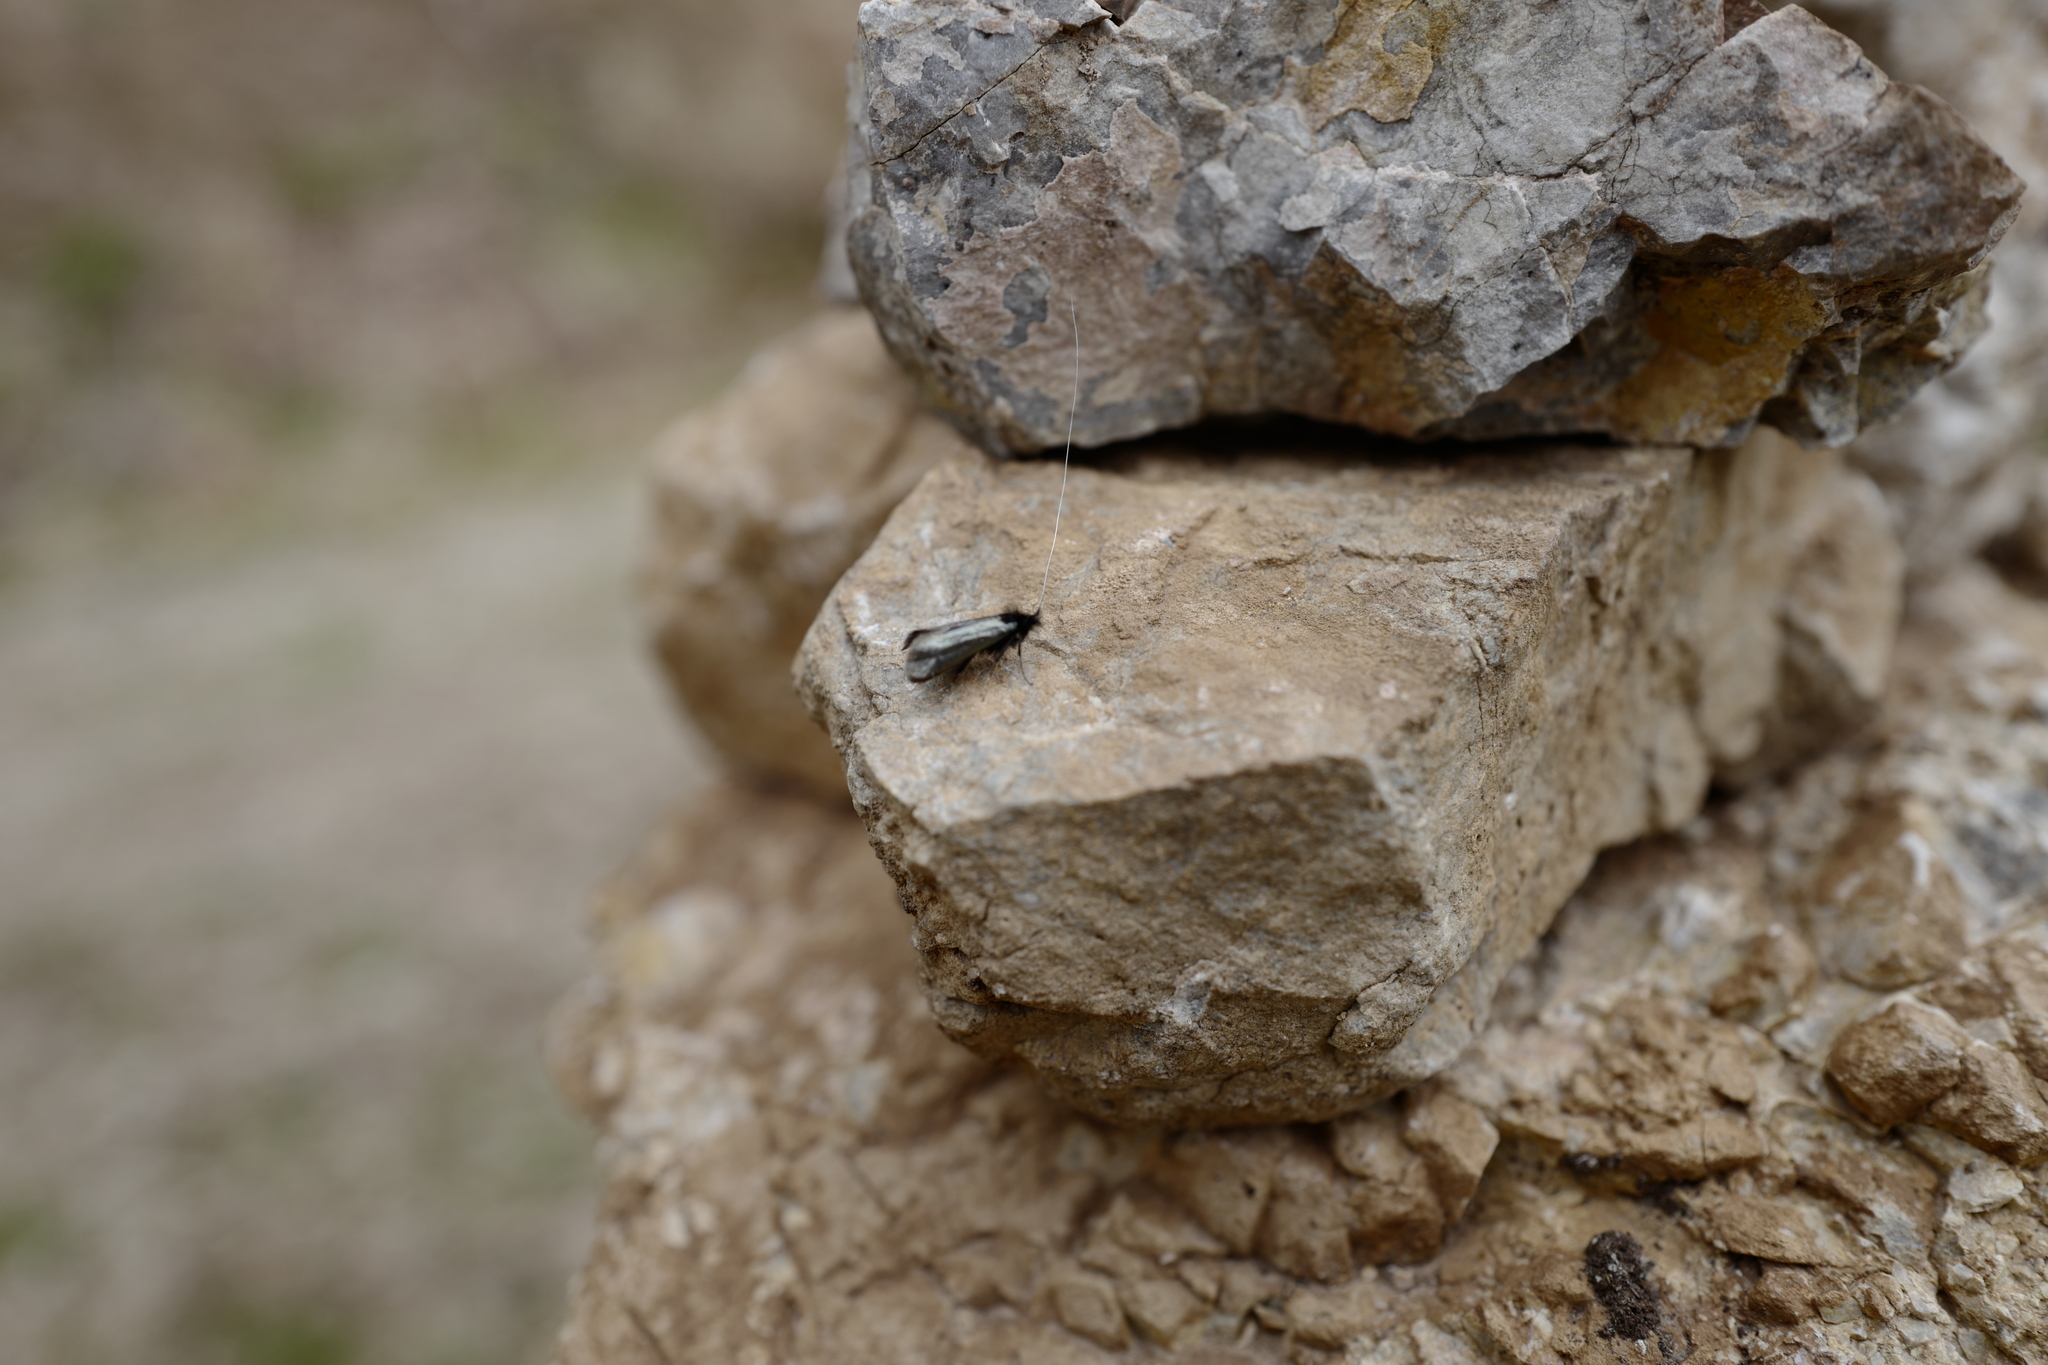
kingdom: Animalia
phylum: Arthropoda
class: Insecta
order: Lepidoptera
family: Adelidae
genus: Adela
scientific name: Adela viridella
